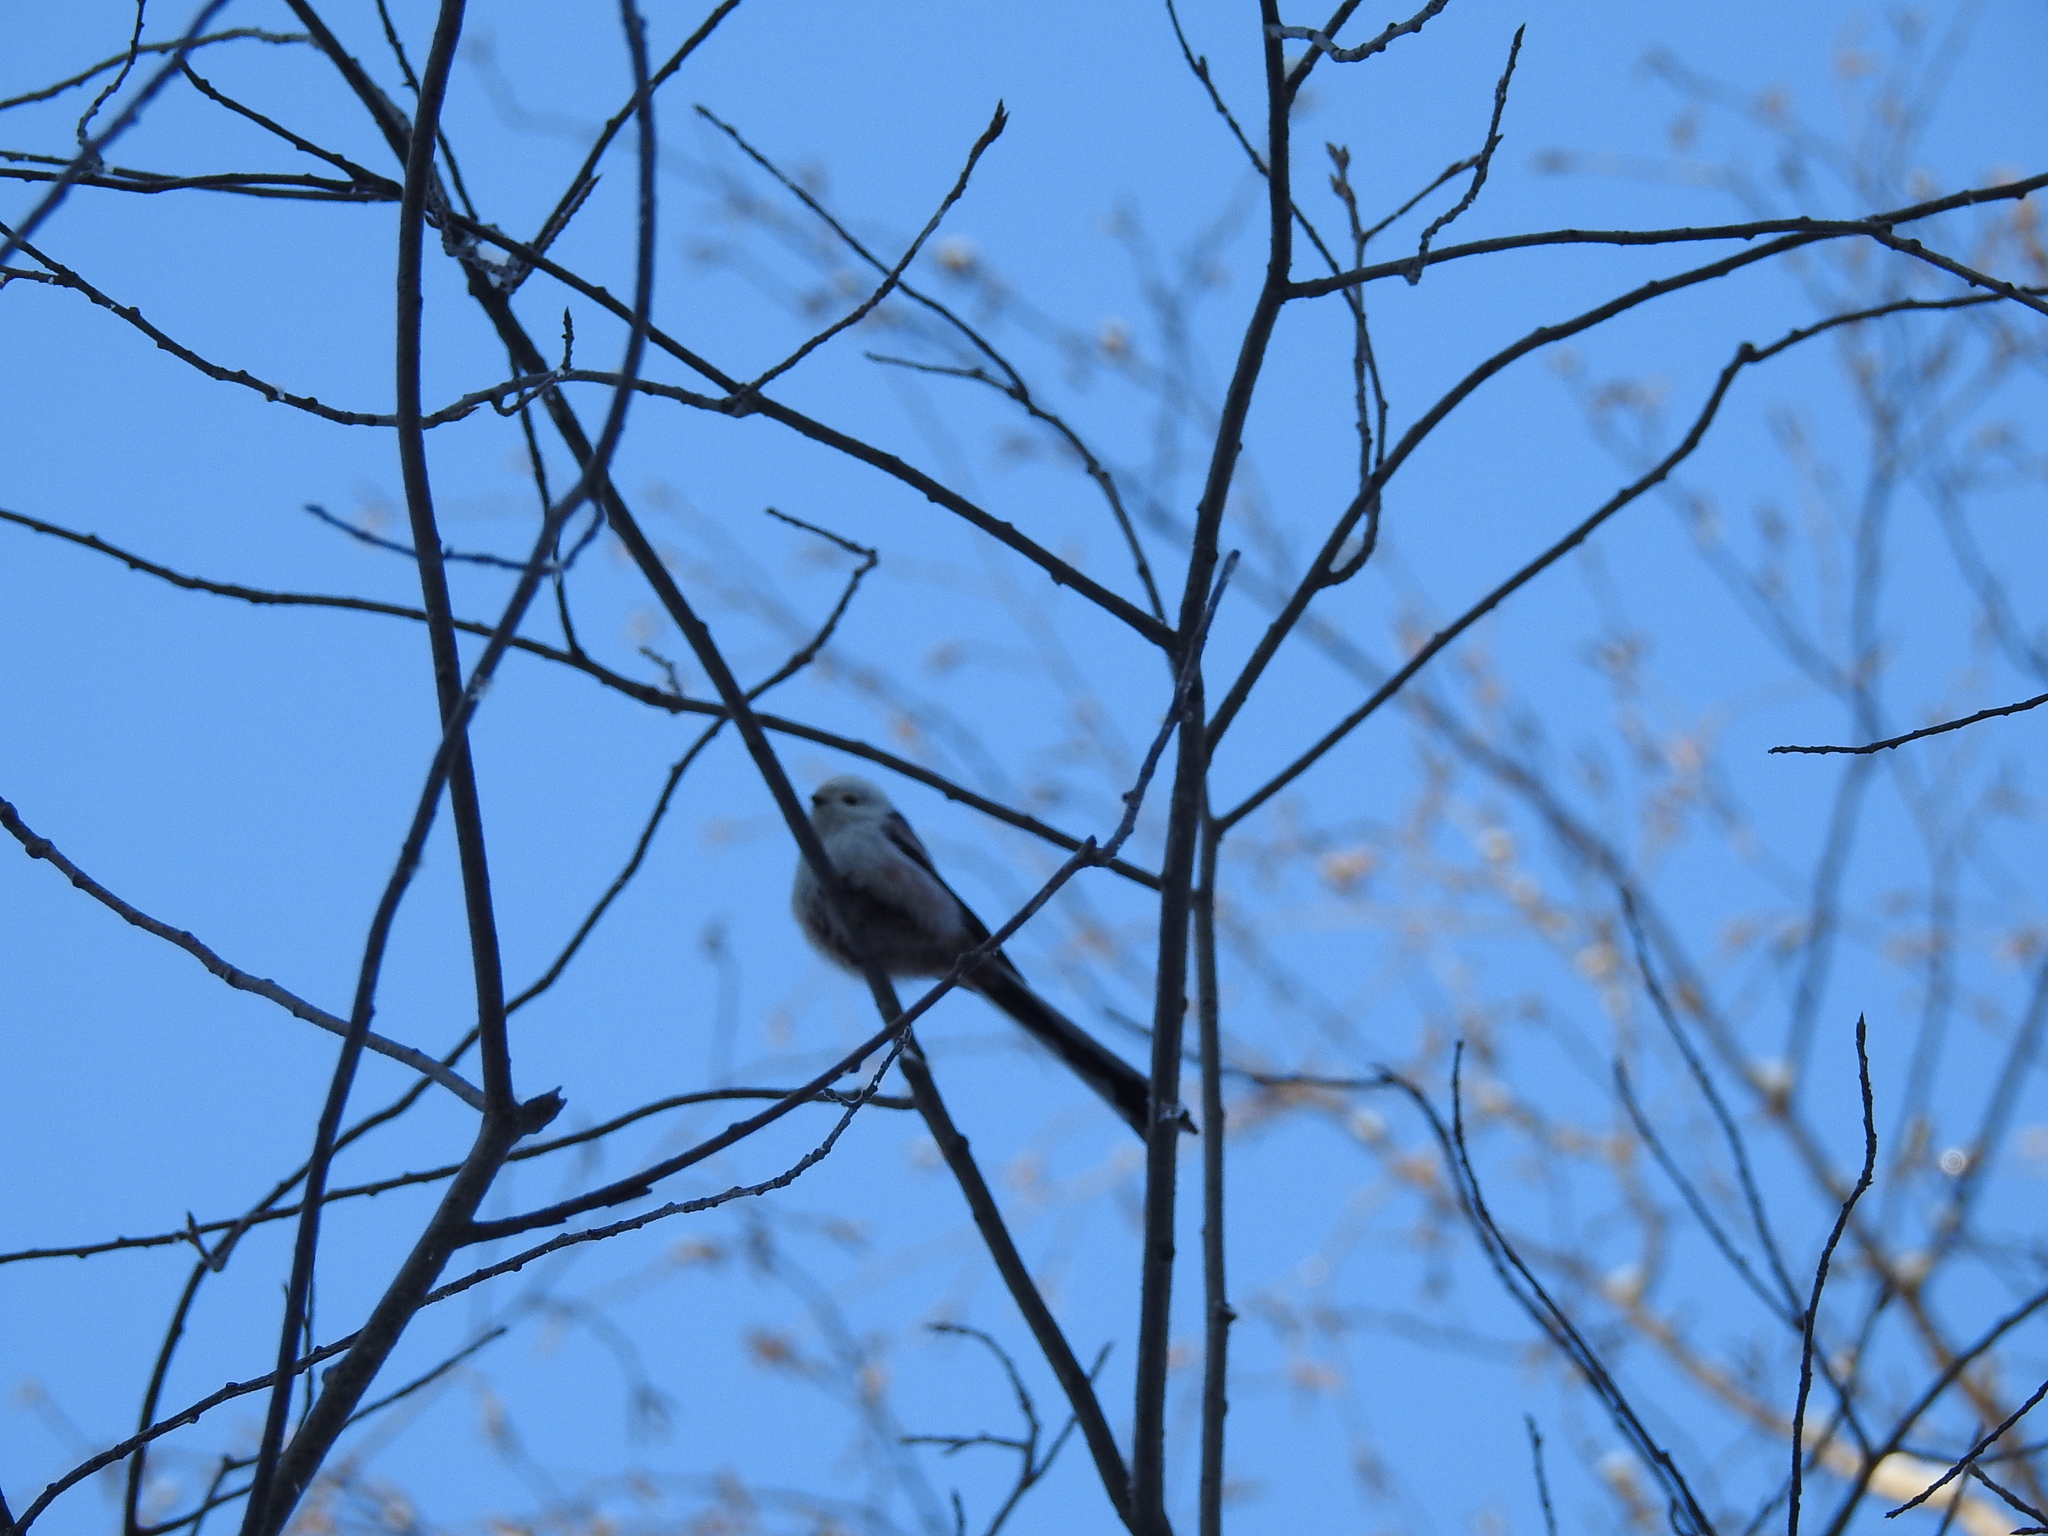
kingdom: Animalia
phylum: Chordata
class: Aves
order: Passeriformes
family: Aegithalidae
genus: Aegithalos
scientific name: Aegithalos caudatus
